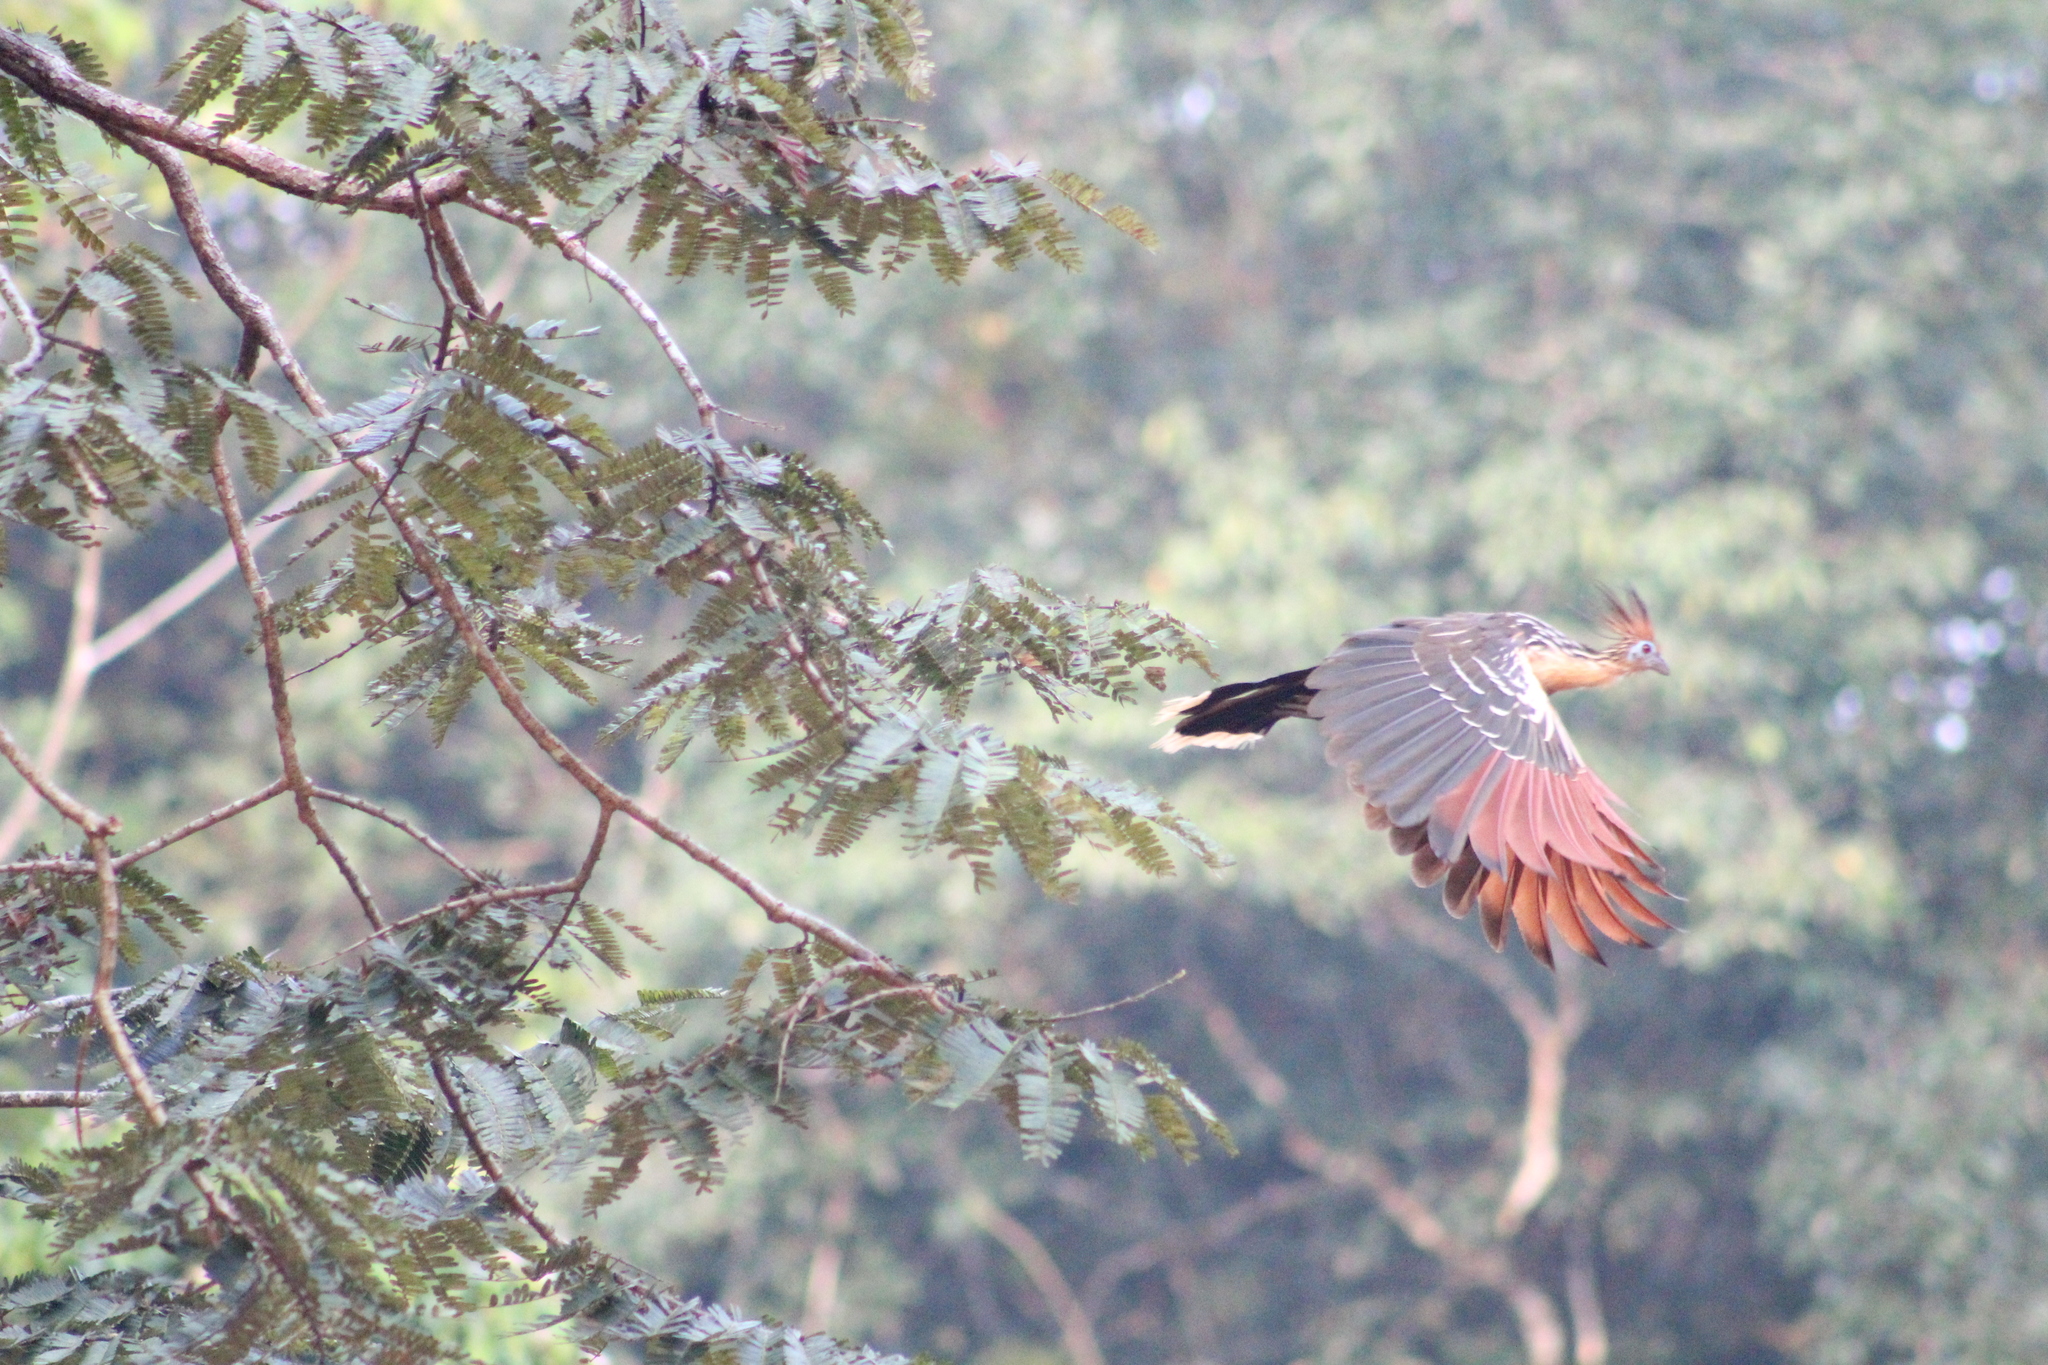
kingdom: Animalia
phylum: Chordata
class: Aves
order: Opisthocomiformes
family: Opisthocomidae
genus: Opisthocomus
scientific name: Opisthocomus hoazin
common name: Hoatzin
